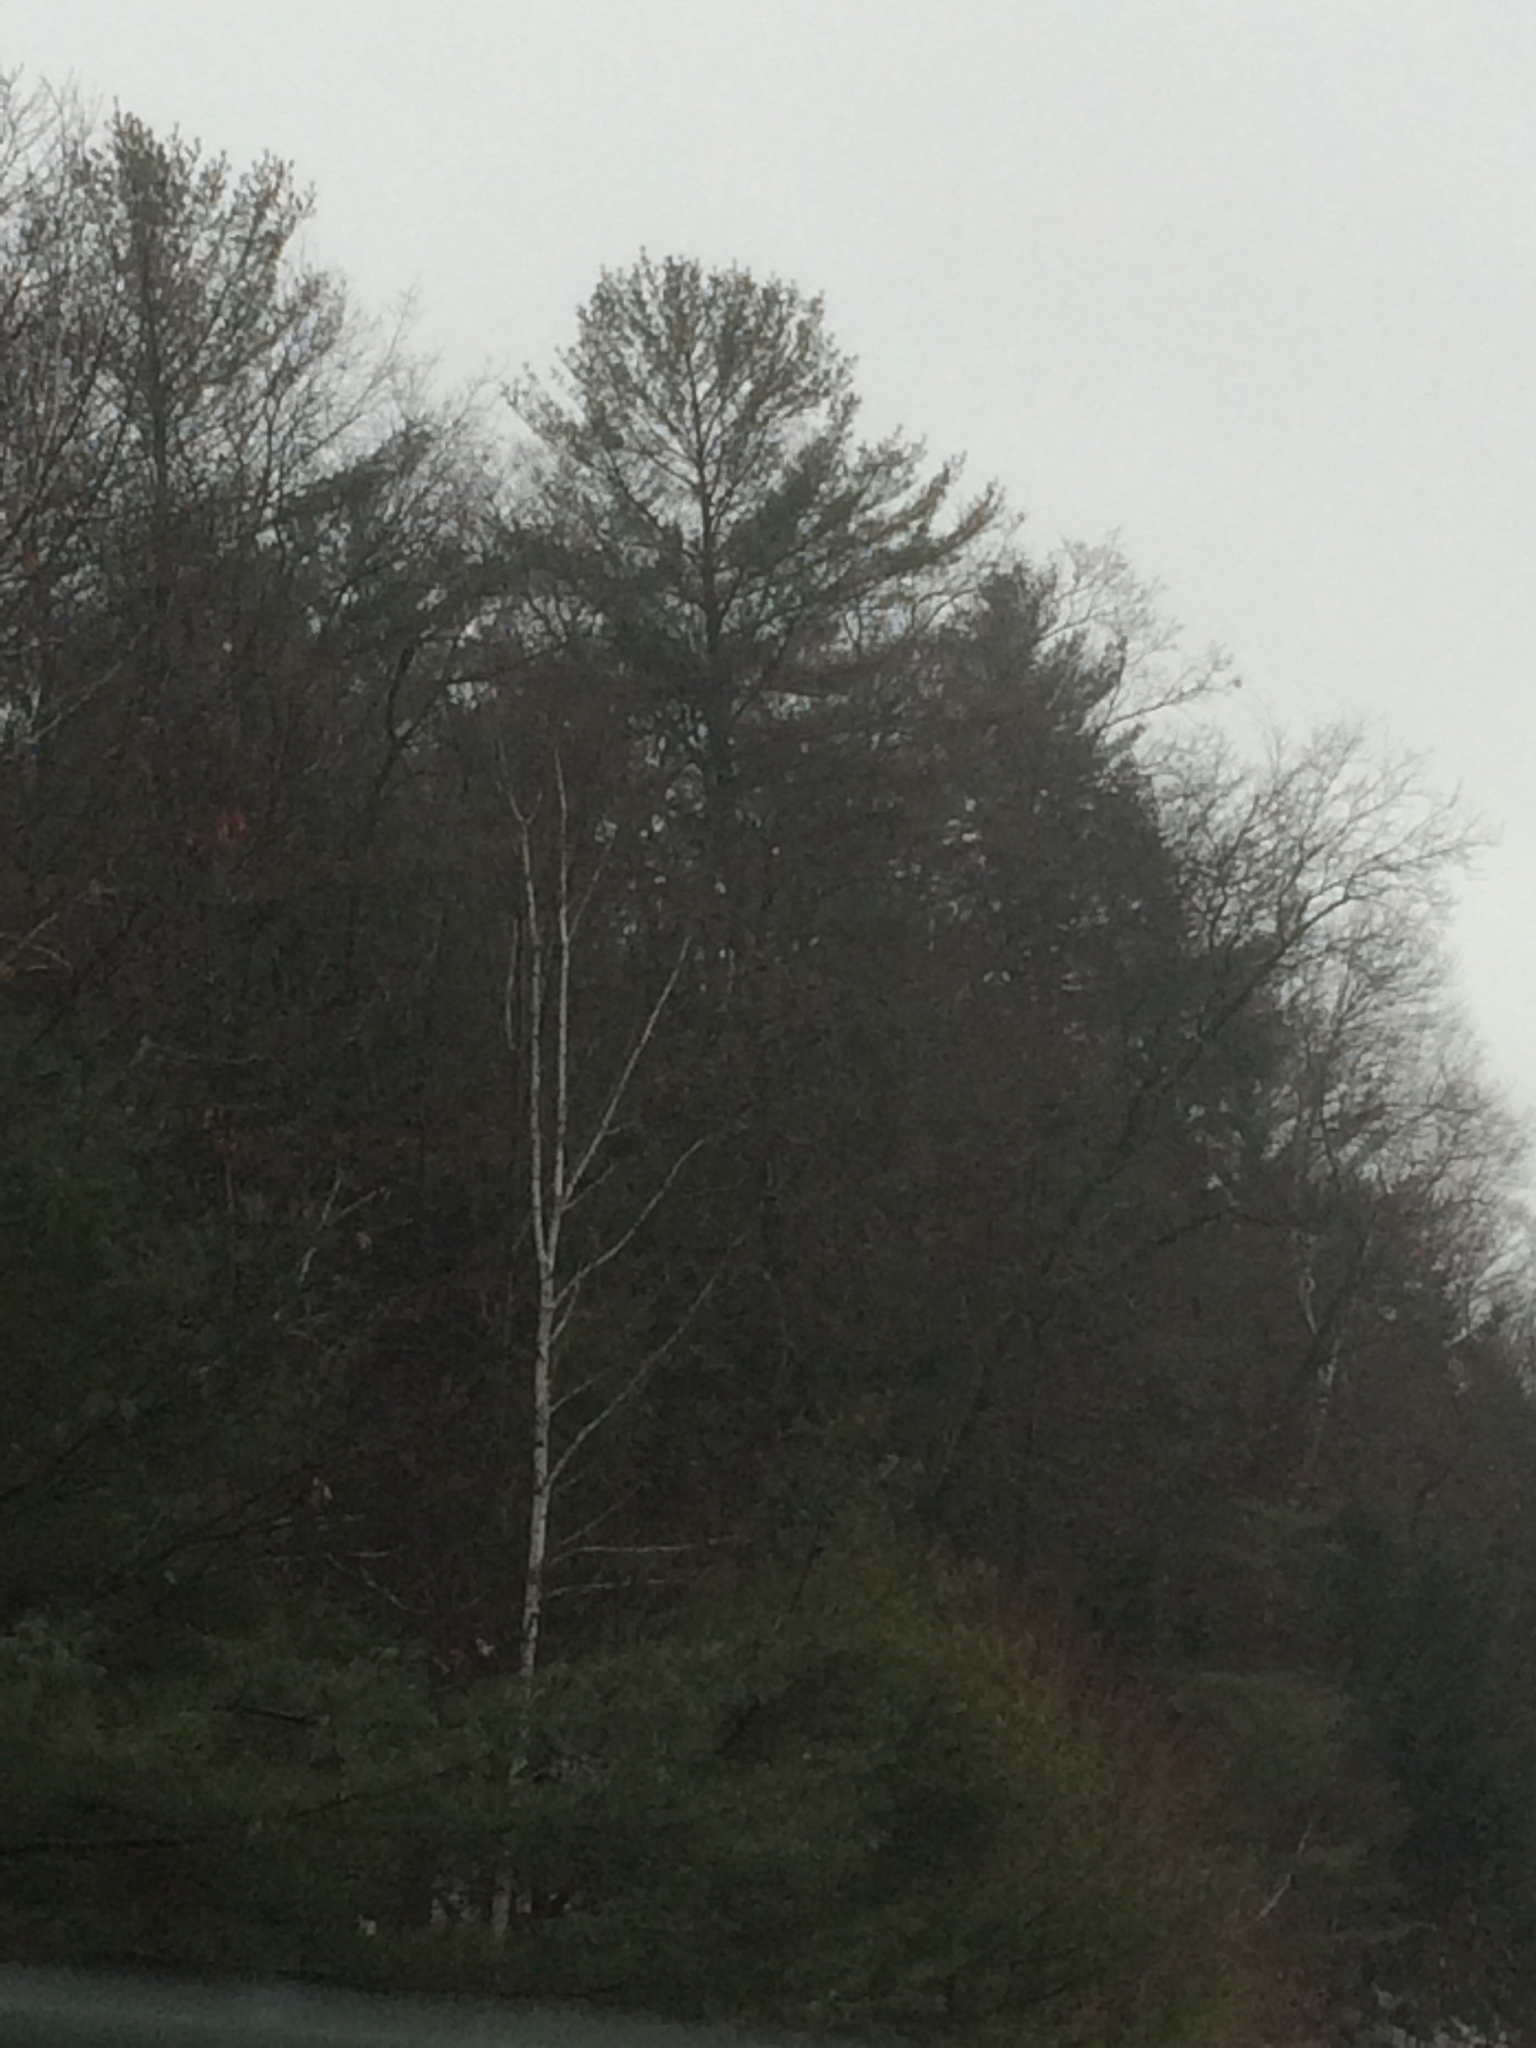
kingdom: Plantae
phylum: Tracheophyta
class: Pinopsida
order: Pinales
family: Pinaceae
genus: Pinus
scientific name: Pinus strobus
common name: Weymouth pine
